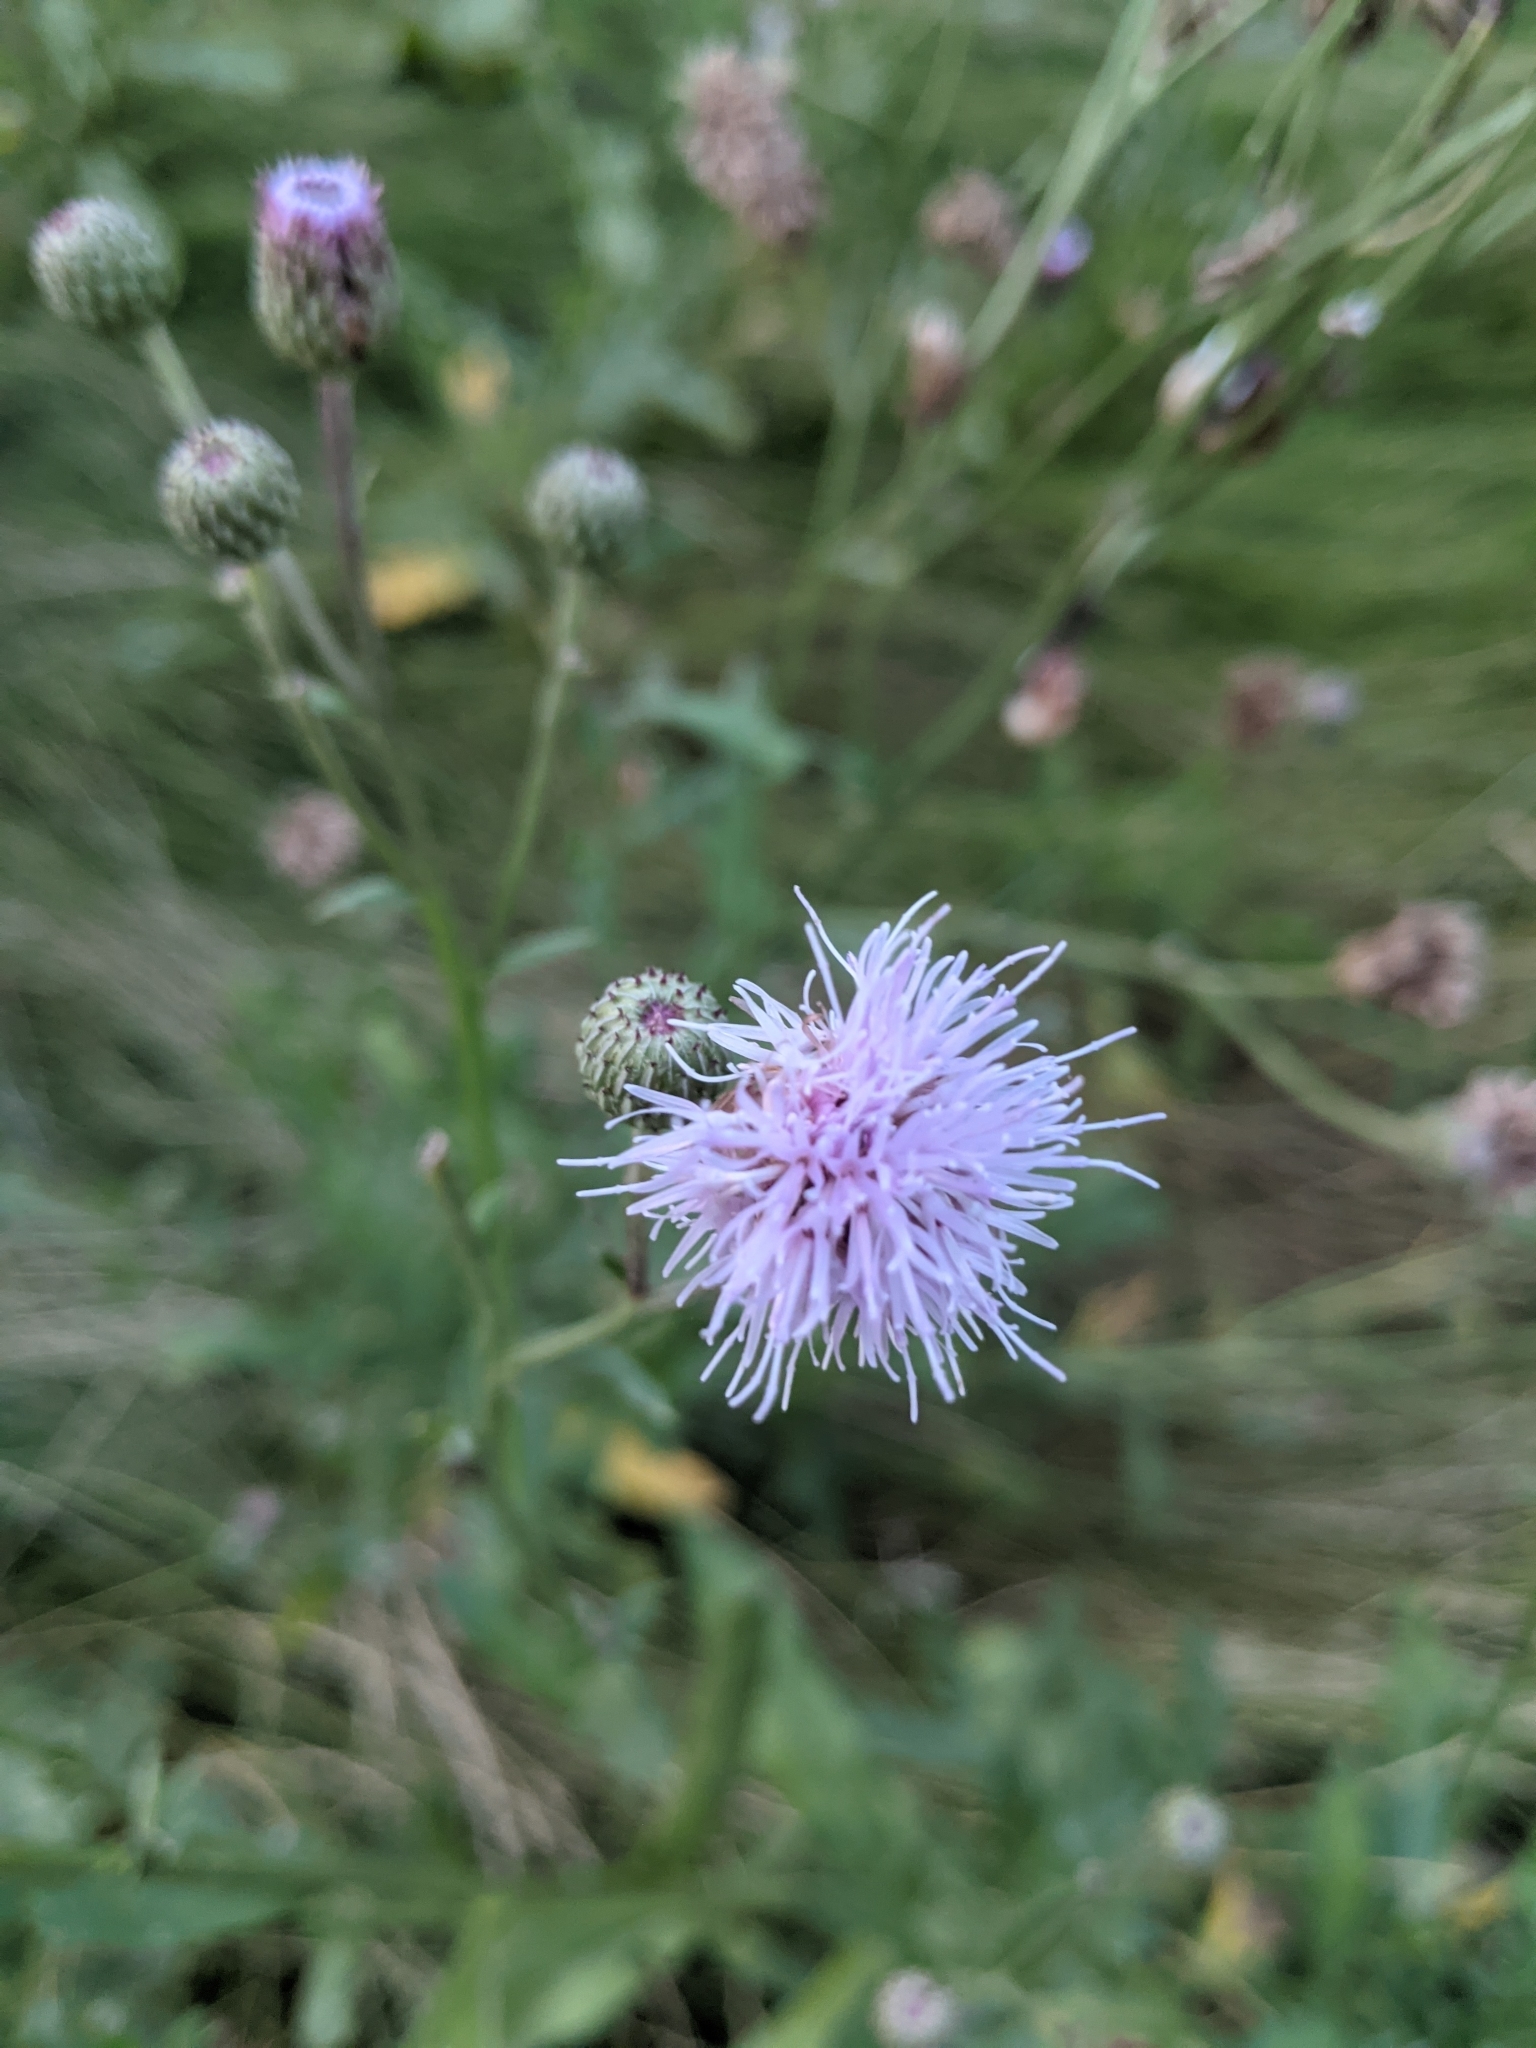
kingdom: Plantae
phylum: Tracheophyta
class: Magnoliopsida
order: Asterales
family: Asteraceae
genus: Cirsium
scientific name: Cirsium arvense
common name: Creeping thistle
